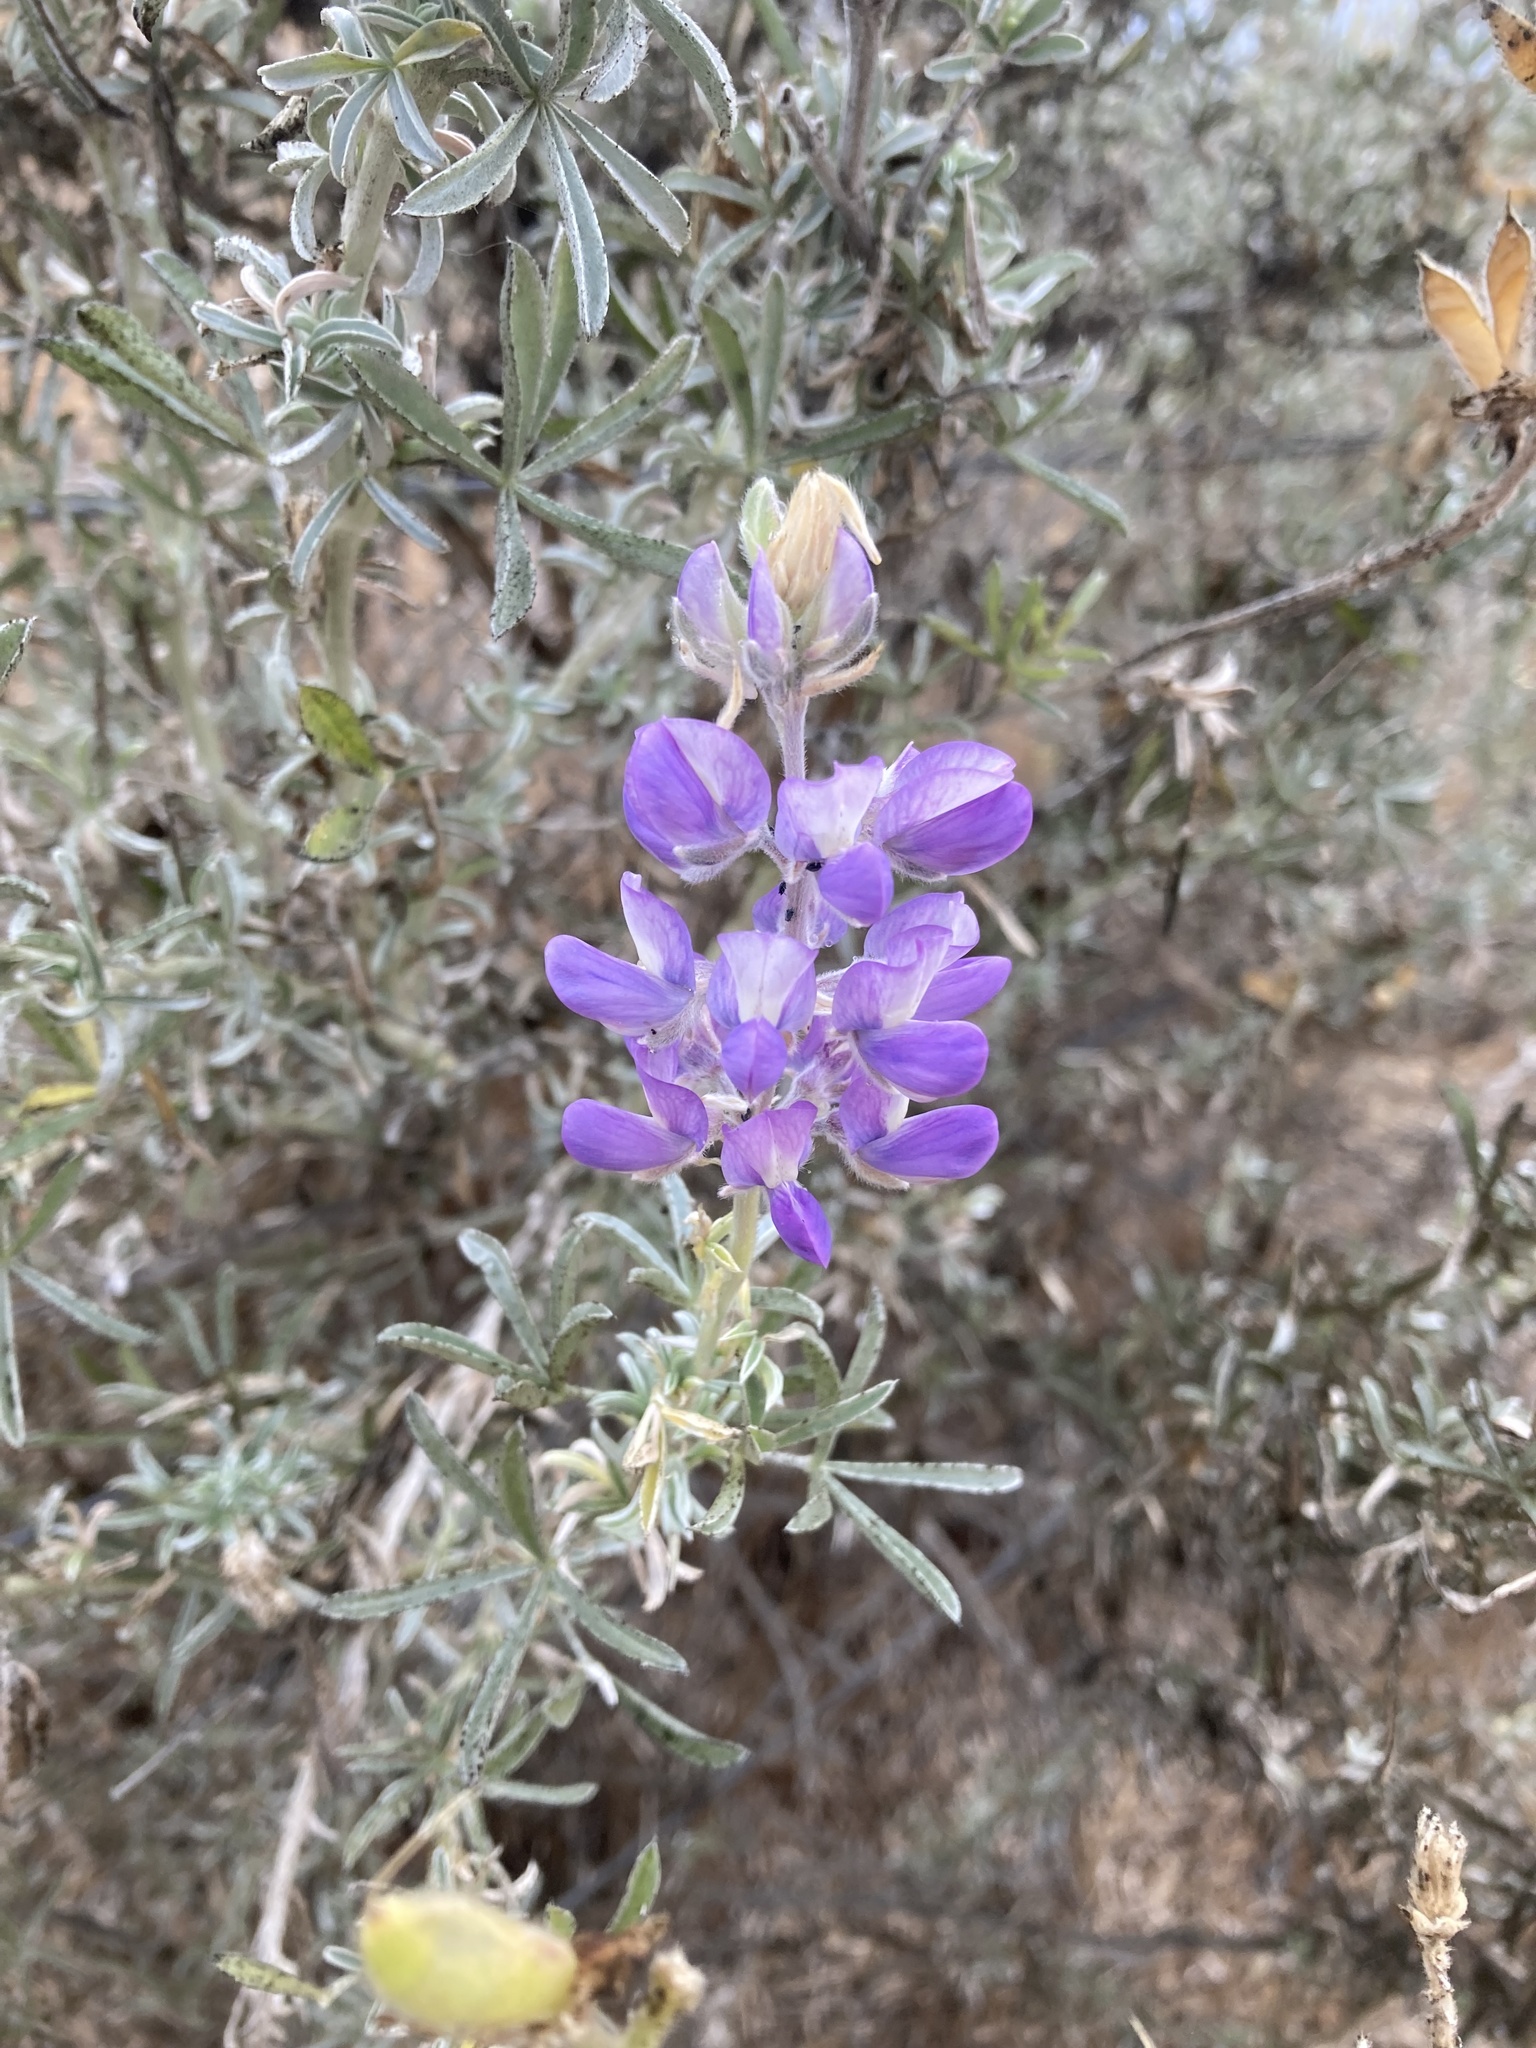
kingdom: Plantae
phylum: Tracheophyta
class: Magnoliopsida
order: Fabales
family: Fabaceae
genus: Lupinus
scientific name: Lupinus chamissonis
